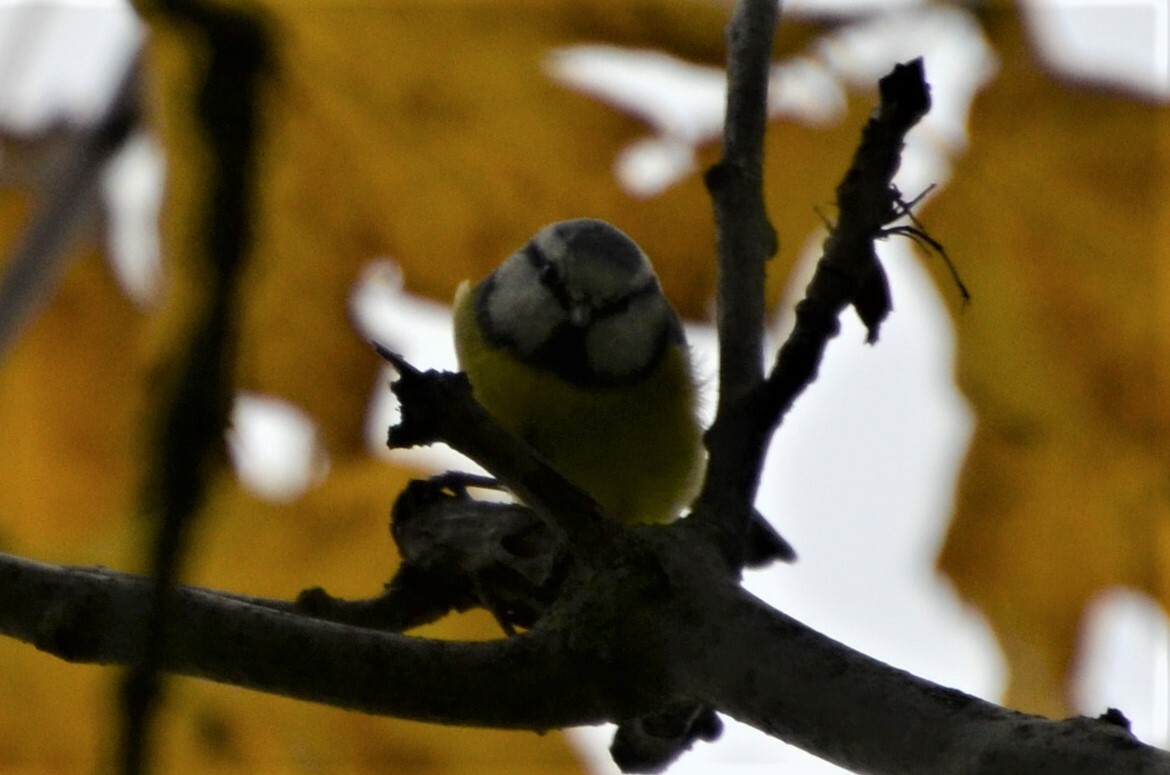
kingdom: Animalia
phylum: Chordata
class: Aves
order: Passeriformes
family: Paridae
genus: Cyanistes
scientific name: Cyanistes caeruleus
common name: Eurasian blue tit
